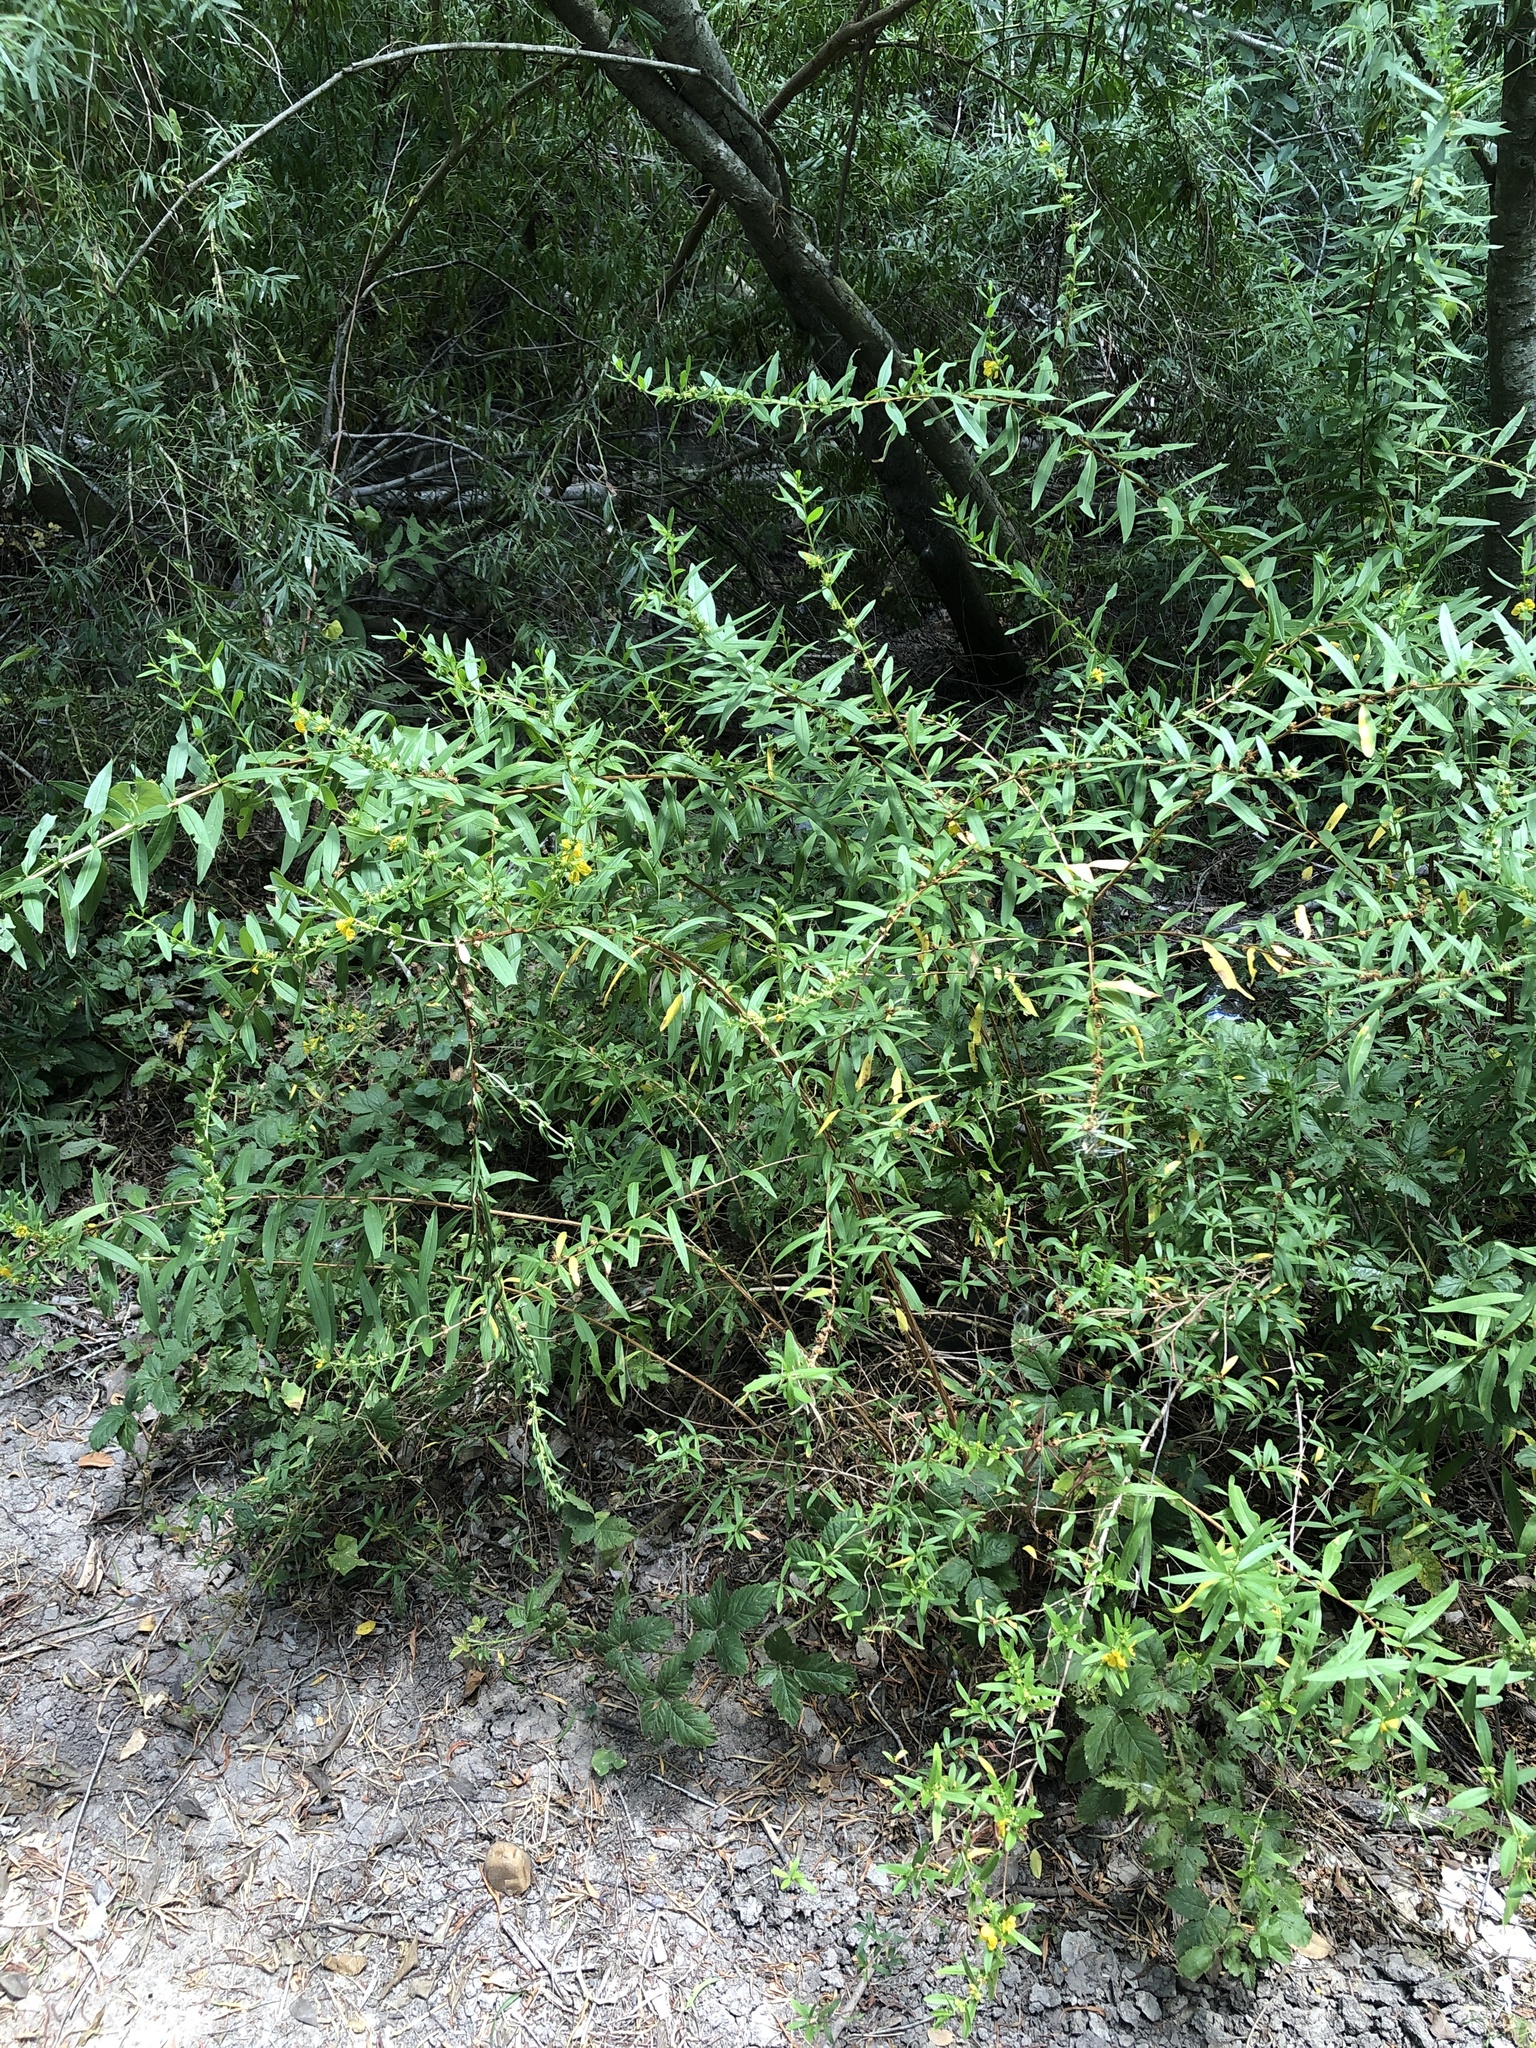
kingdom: Plantae
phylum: Tracheophyta
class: Magnoliopsida
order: Myrtales
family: Lythraceae
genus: Heimia
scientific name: Heimia salicifolia
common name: Willow-leaf heimia
